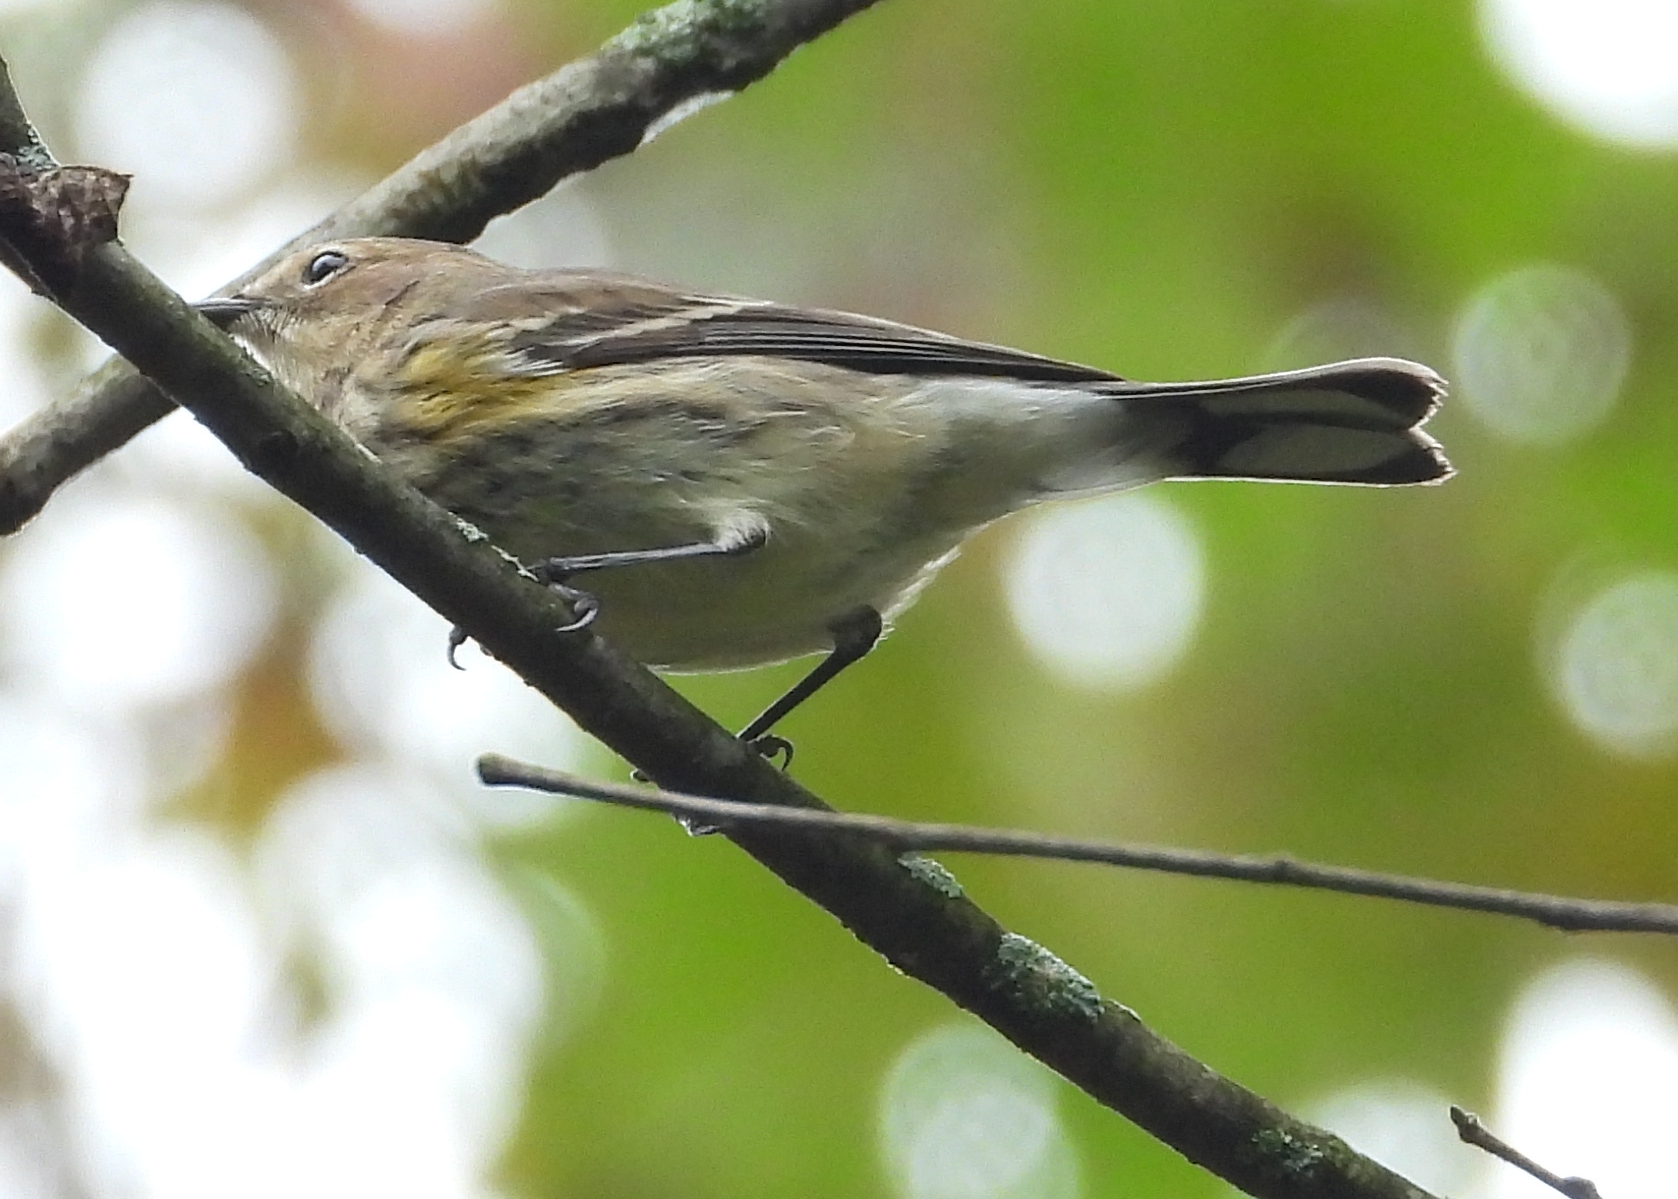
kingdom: Animalia
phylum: Chordata
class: Aves
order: Passeriformes
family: Parulidae
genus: Setophaga
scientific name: Setophaga coronata
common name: Myrtle warbler
